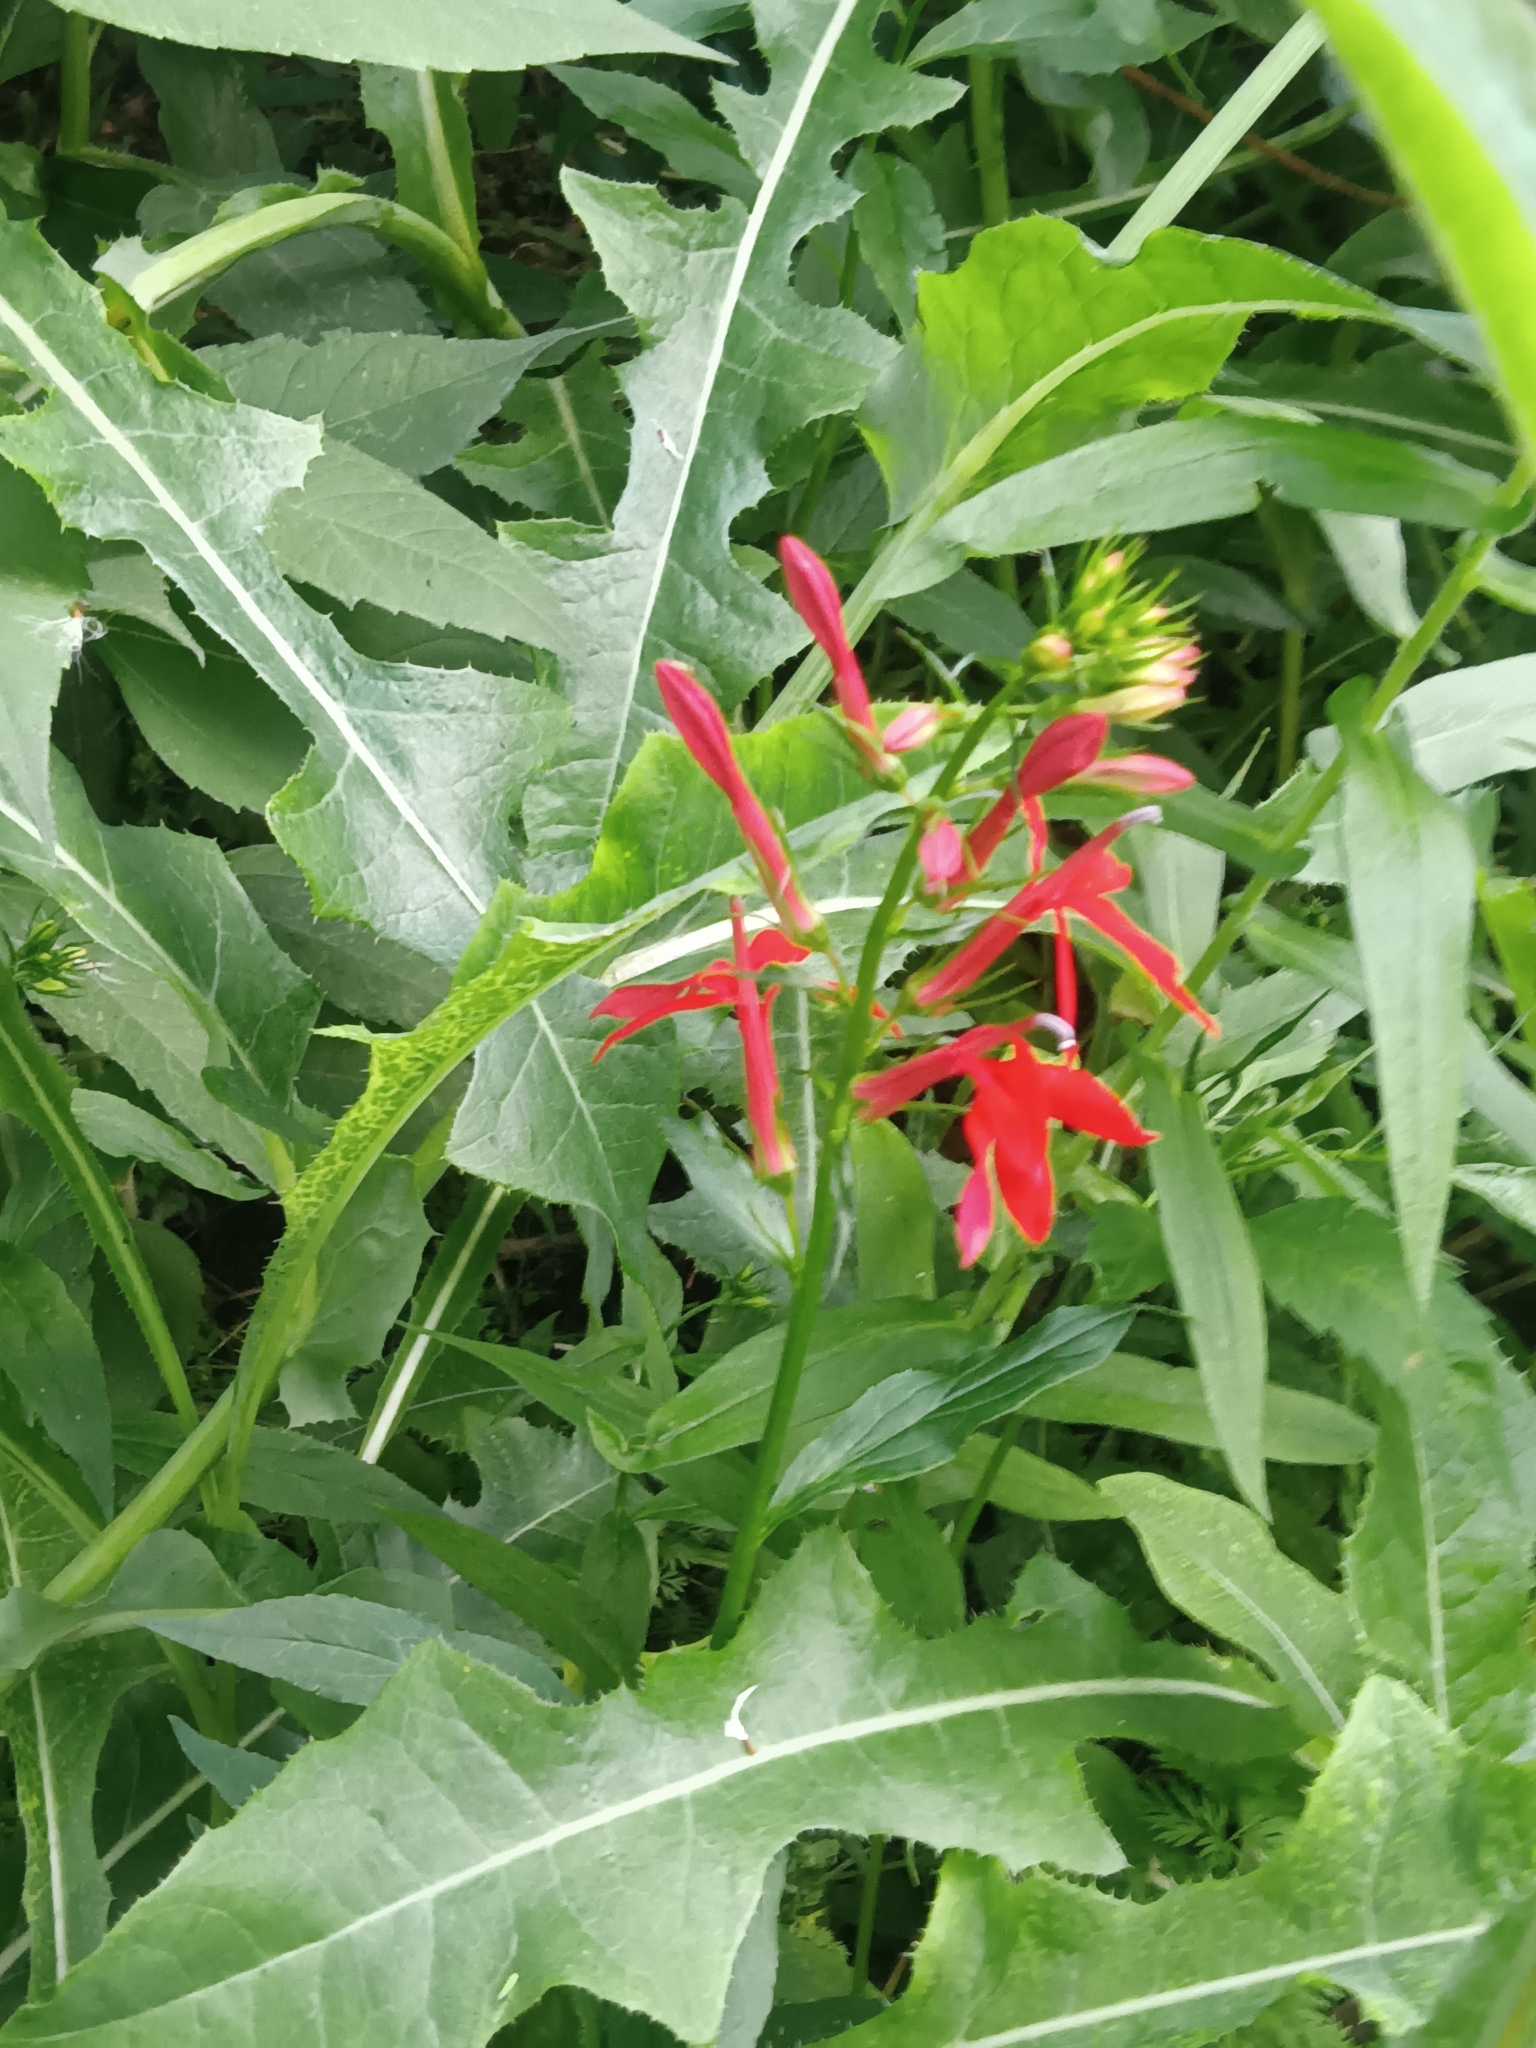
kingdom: Plantae
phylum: Tracheophyta
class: Magnoliopsida
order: Asterales
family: Campanulaceae
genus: Lobelia
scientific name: Lobelia cardinalis
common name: Cardinal flower
